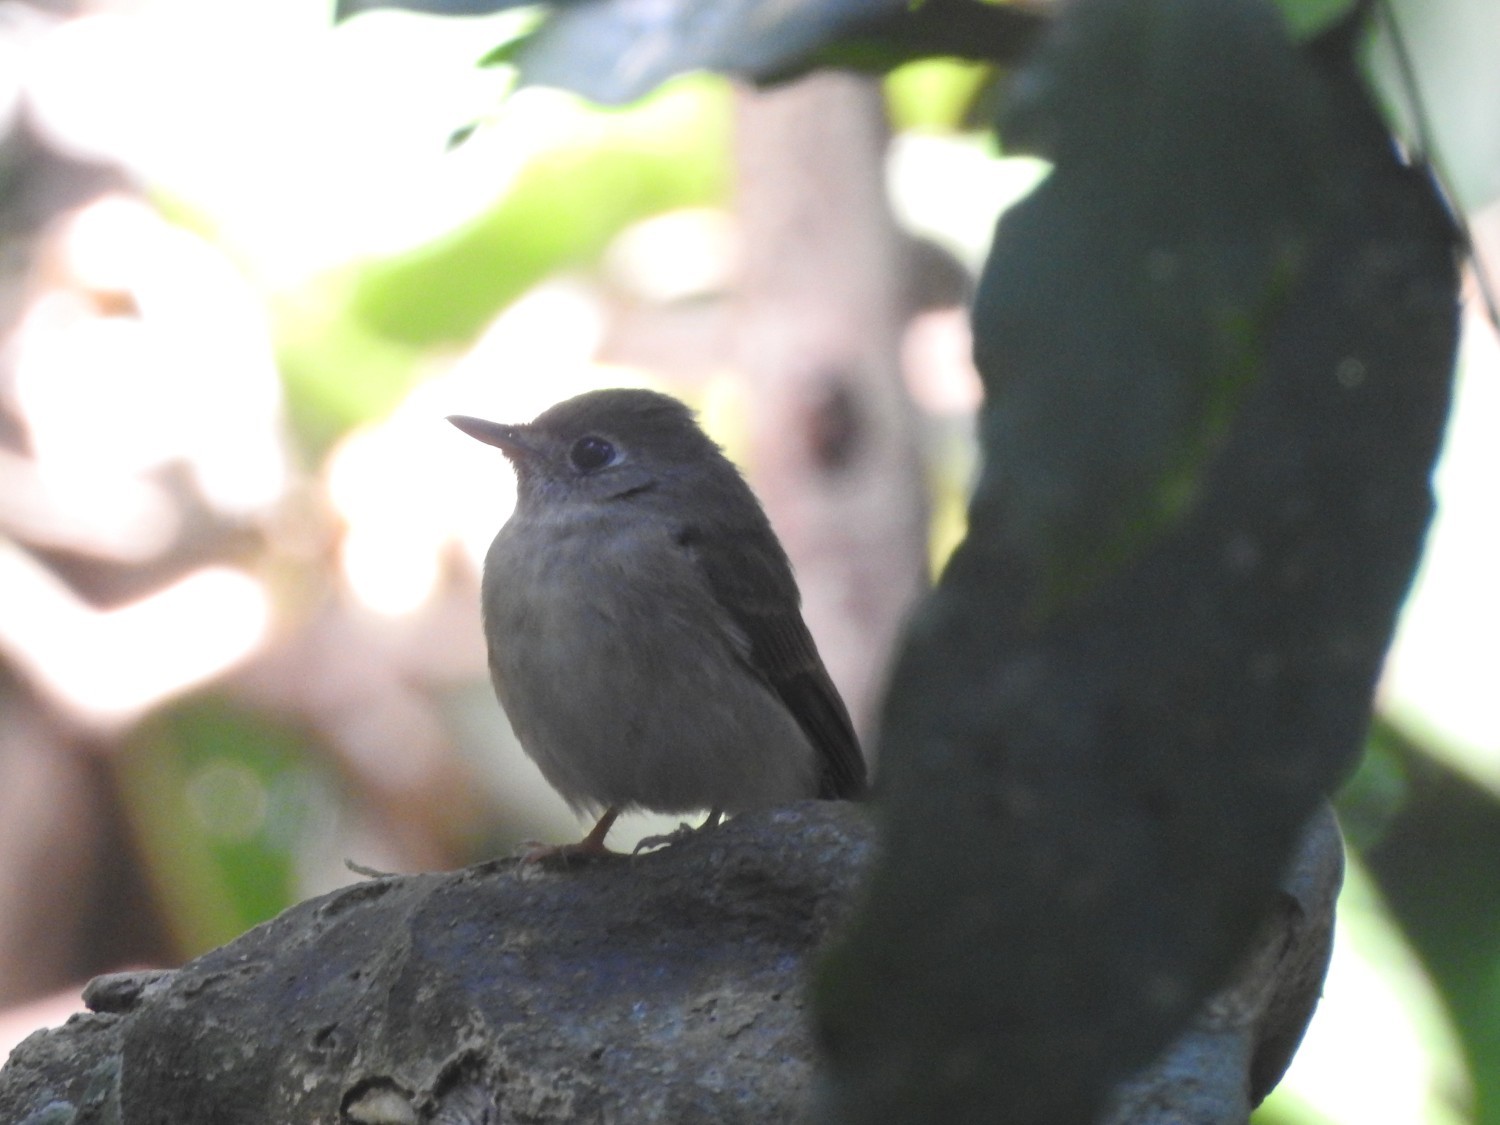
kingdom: Animalia
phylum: Chordata
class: Aves
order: Passeriformes
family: Muscicapidae
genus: Muscicapa
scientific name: Muscicapa latirostris
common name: Asian brown flycatcher
